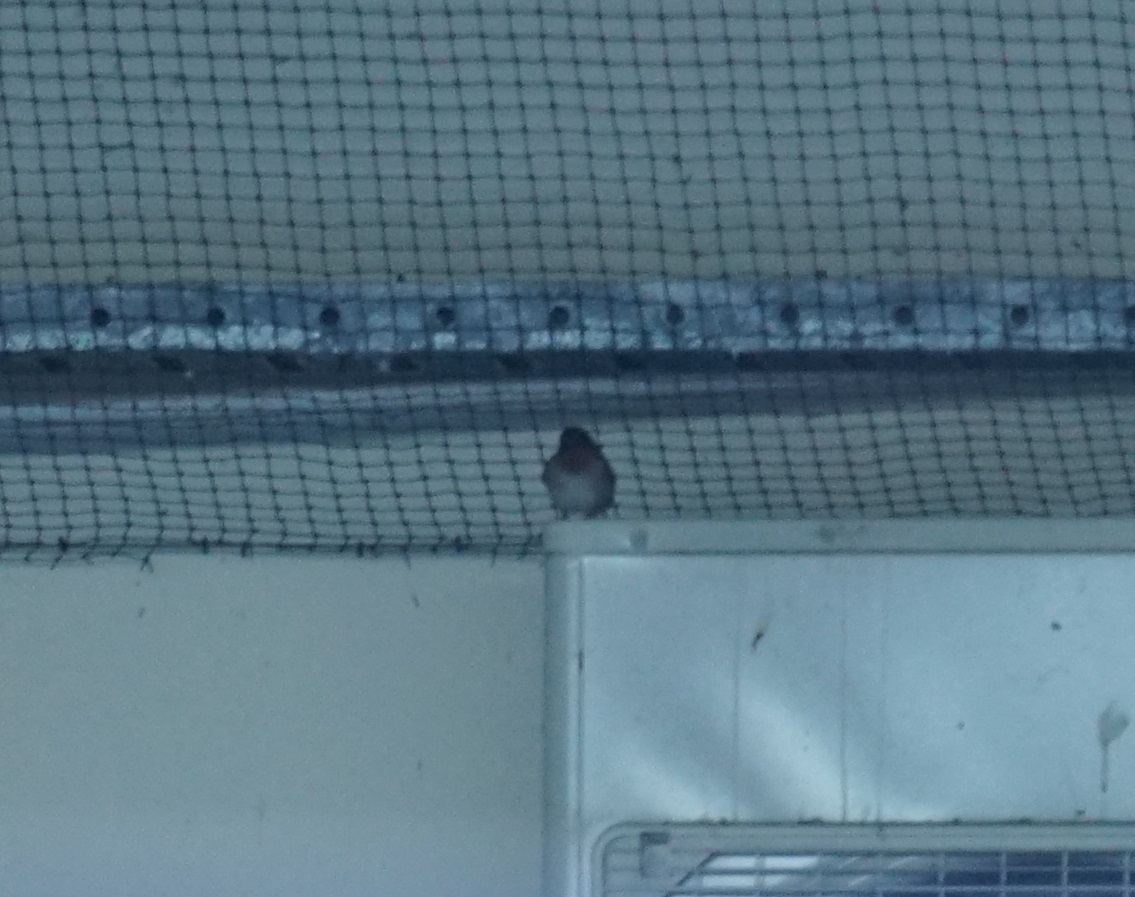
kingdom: Animalia
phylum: Chordata
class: Aves
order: Passeriformes
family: Hirundinidae
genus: Hirundo
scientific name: Hirundo neoxena
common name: Welcome swallow
